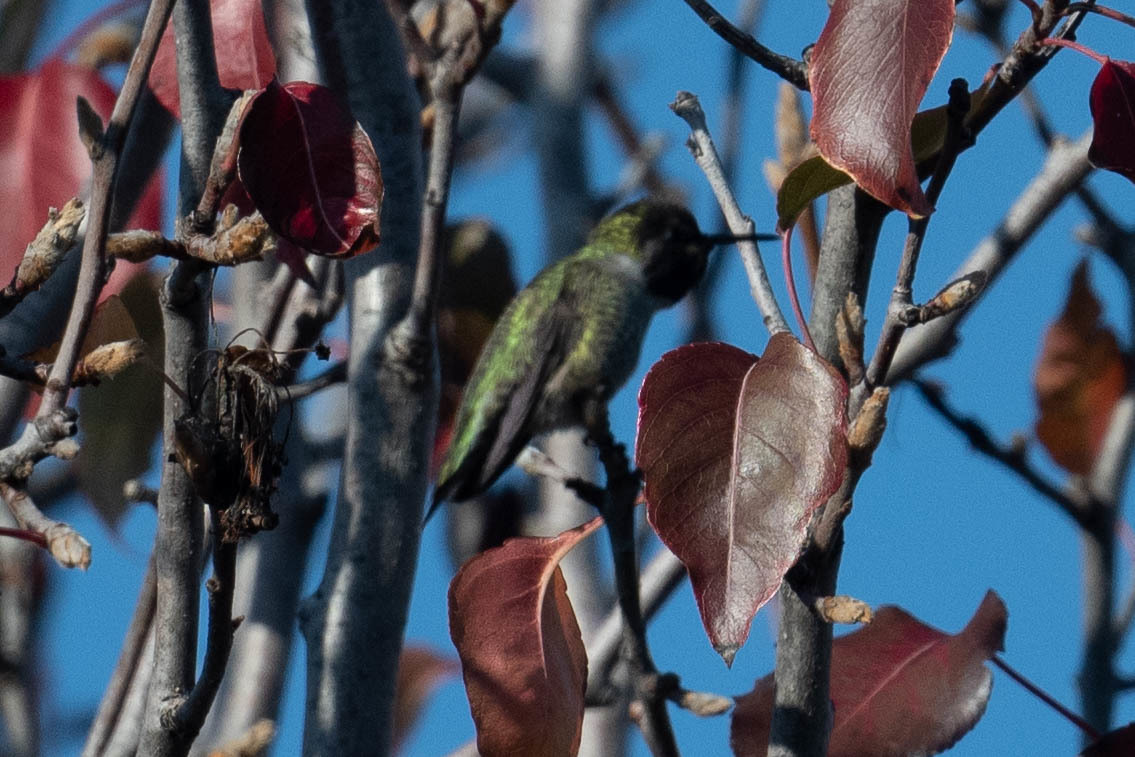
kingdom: Animalia
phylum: Chordata
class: Aves
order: Apodiformes
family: Trochilidae
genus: Calypte
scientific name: Calypte anna
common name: Anna's hummingbird
